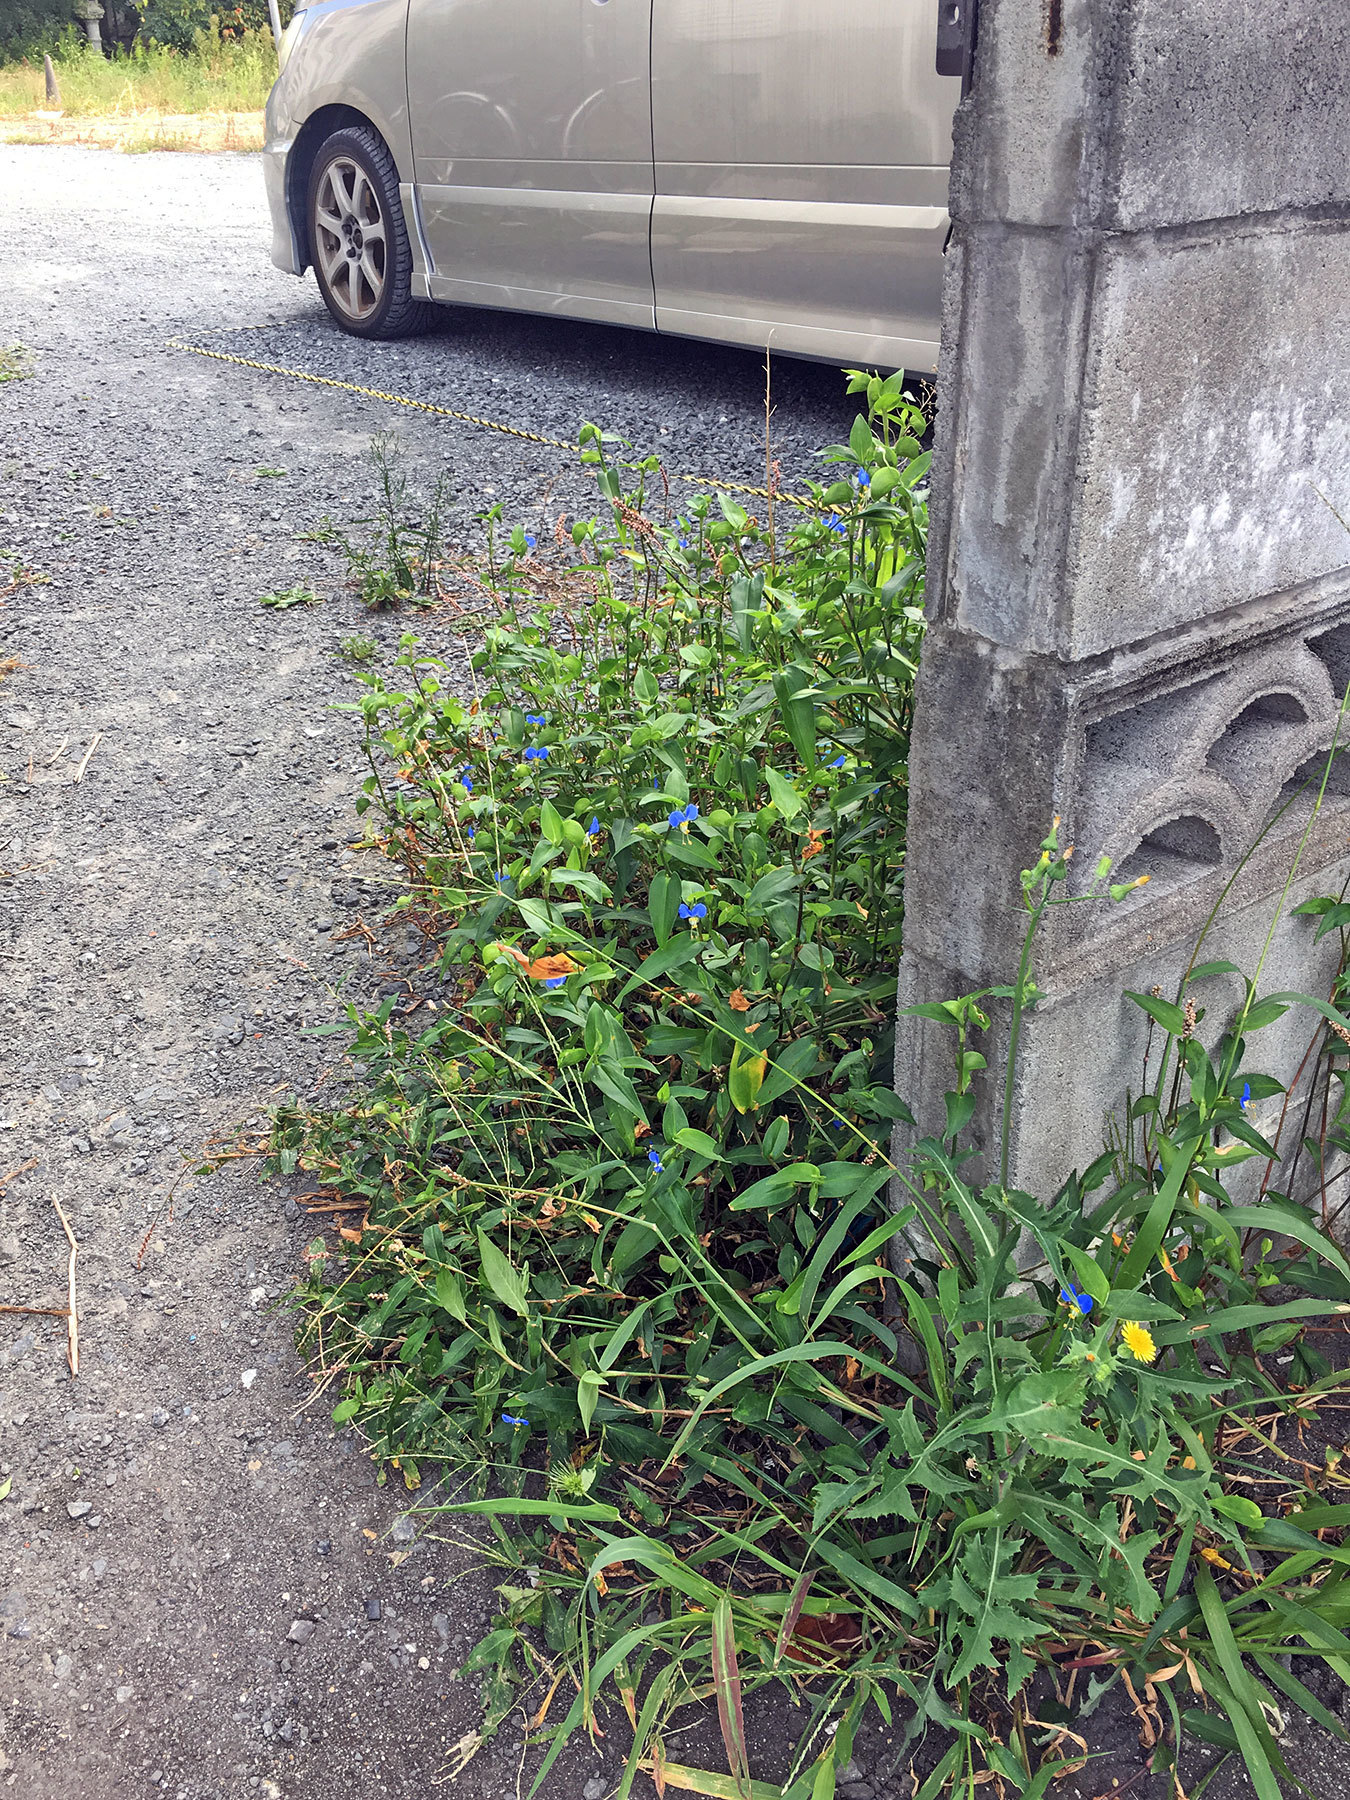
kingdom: Plantae
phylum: Tracheophyta
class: Liliopsida
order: Commelinales
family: Commelinaceae
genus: Commelina
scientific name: Commelina communis
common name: Asiatic dayflower
